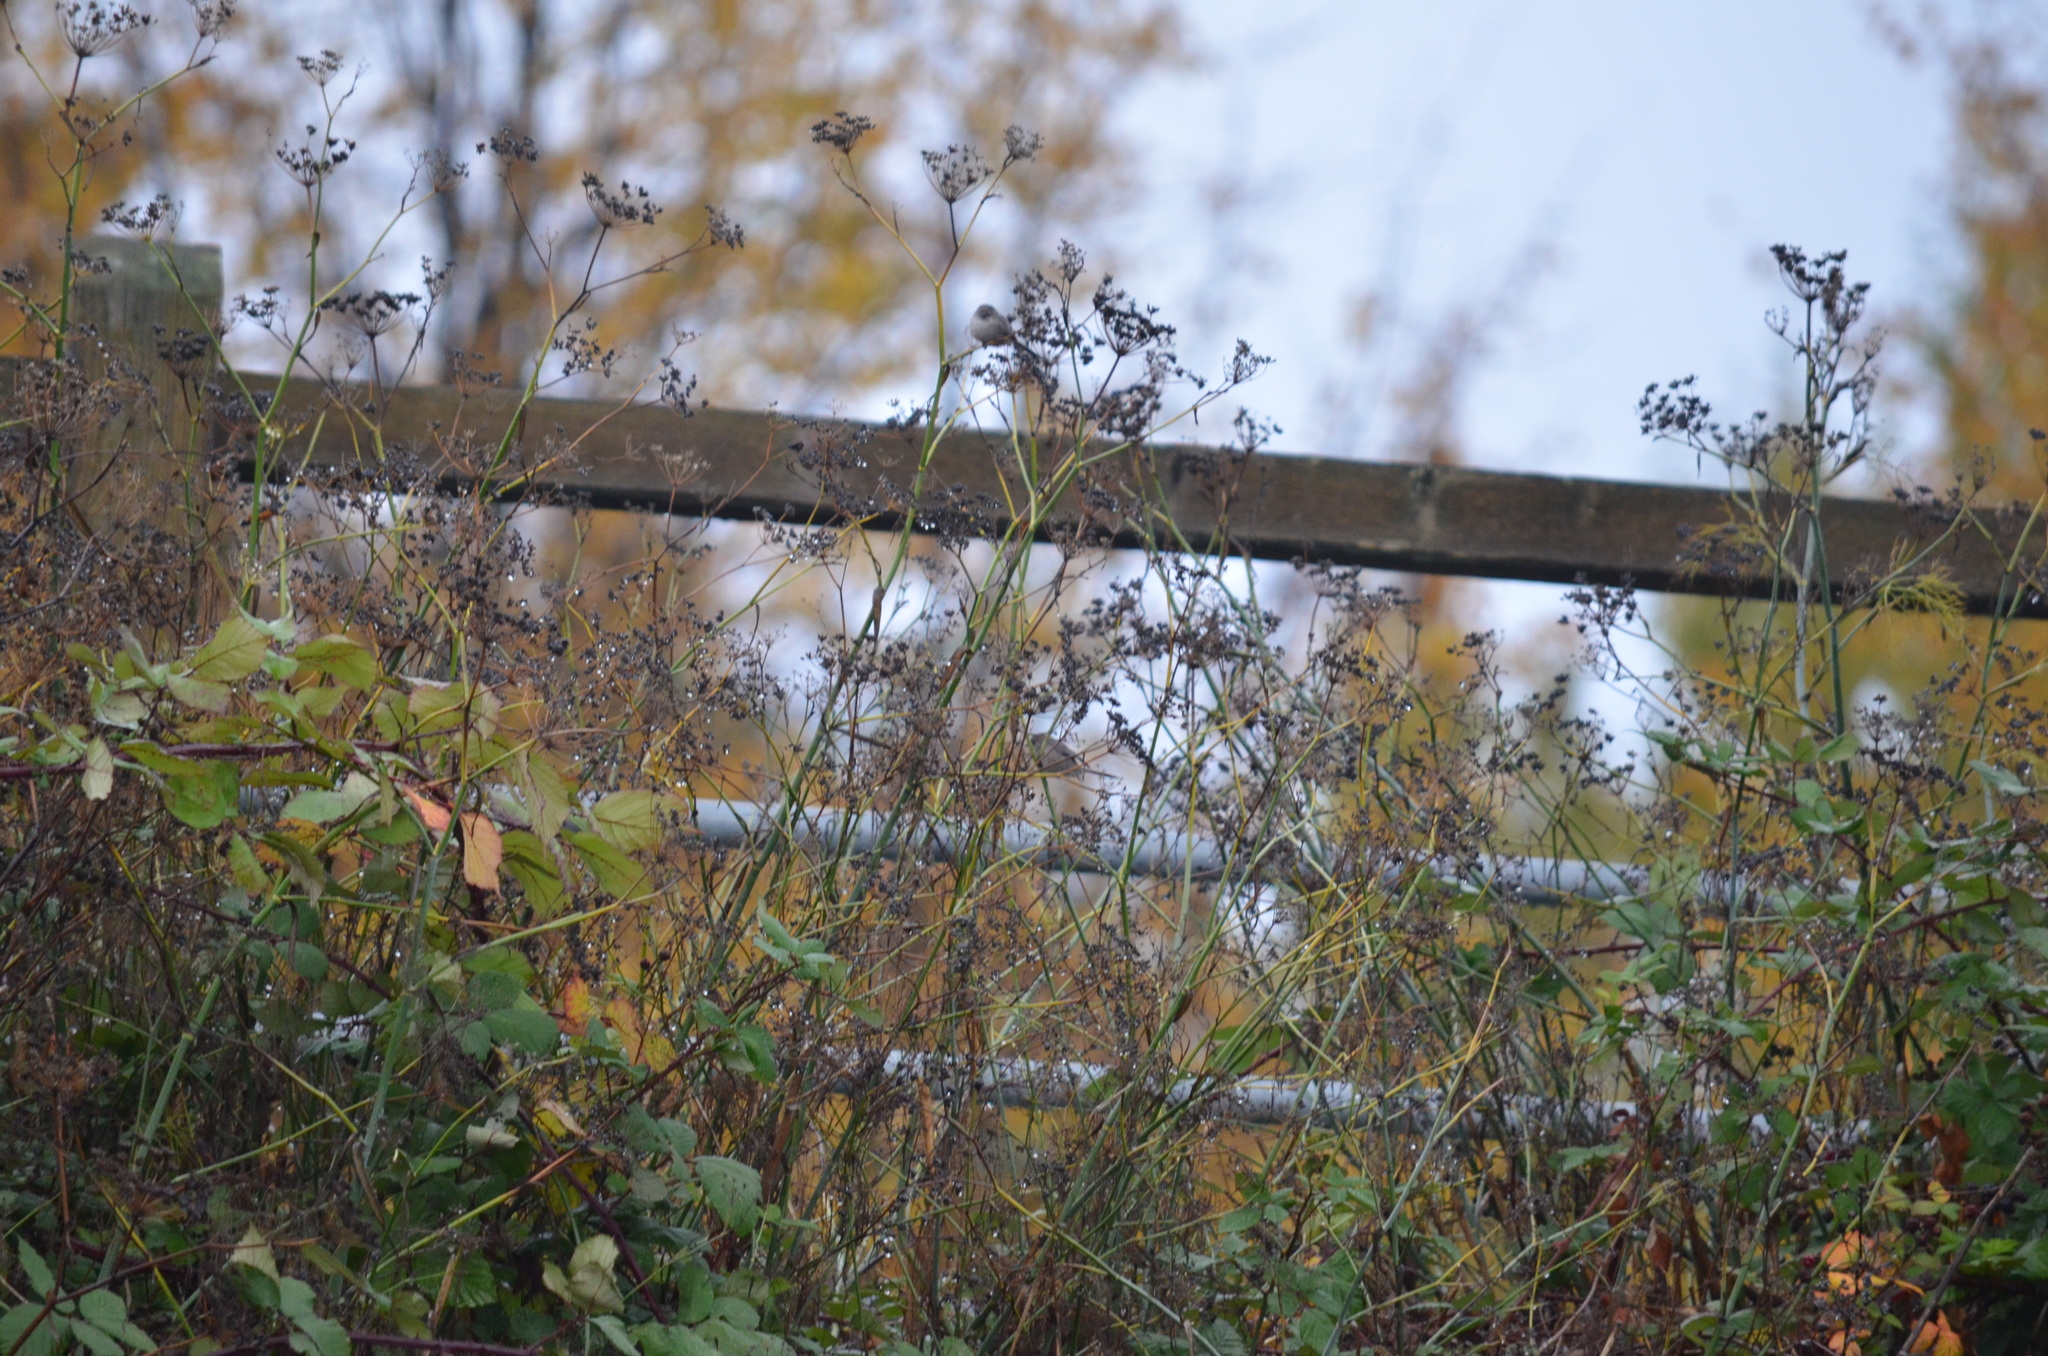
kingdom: Animalia
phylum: Chordata
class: Aves
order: Passeriformes
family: Aegithalidae
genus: Psaltriparus
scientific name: Psaltriparus minimus
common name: American bushtit
